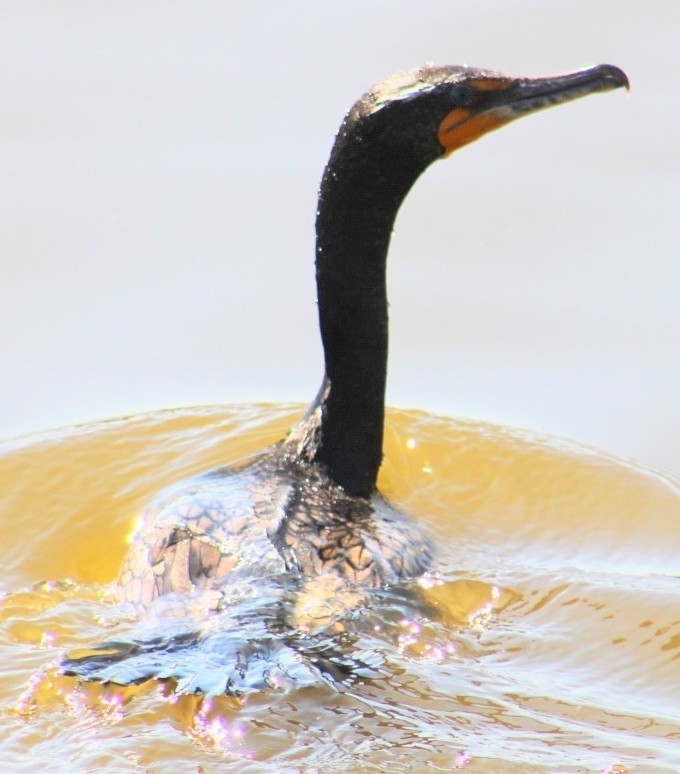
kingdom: Animalia
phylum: Chordata
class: Aves
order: Suliformes
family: Phalacrocoracidae
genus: Phalacrocorax
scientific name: Phalacrocorax auritus
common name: Double-crested cormorant
